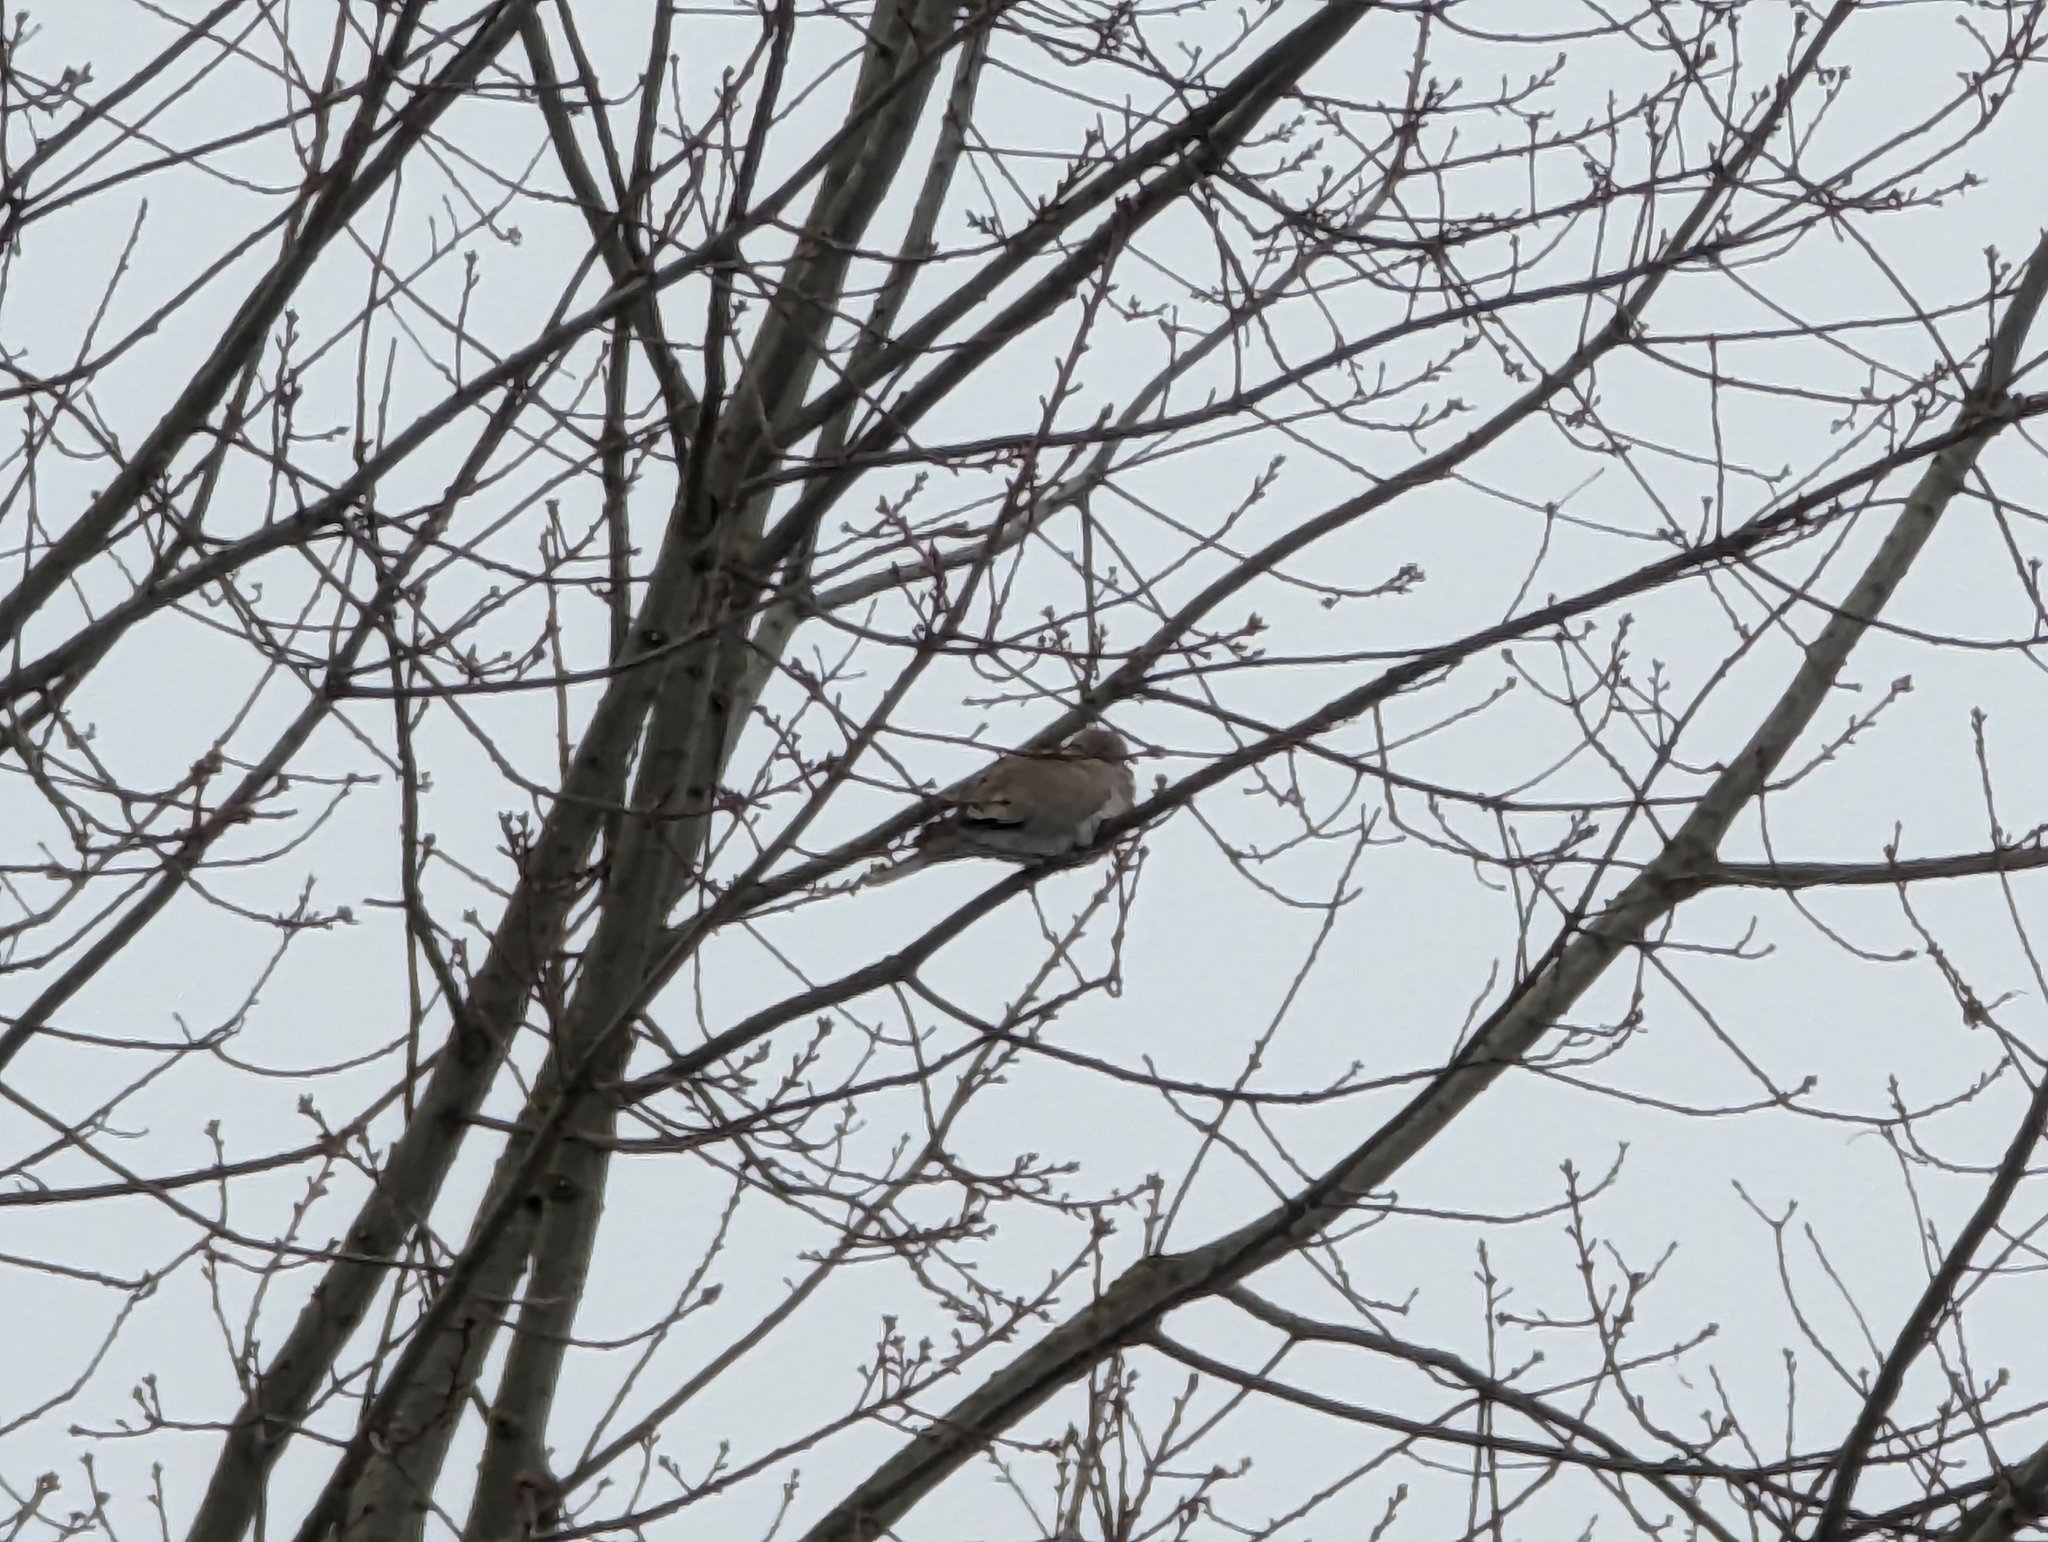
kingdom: Animalia
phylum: Chordata
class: Aves
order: Columbiformes
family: Columbidae
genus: Streptopelia
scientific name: Streptopelia decaocto
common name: Eurasian collared dove
